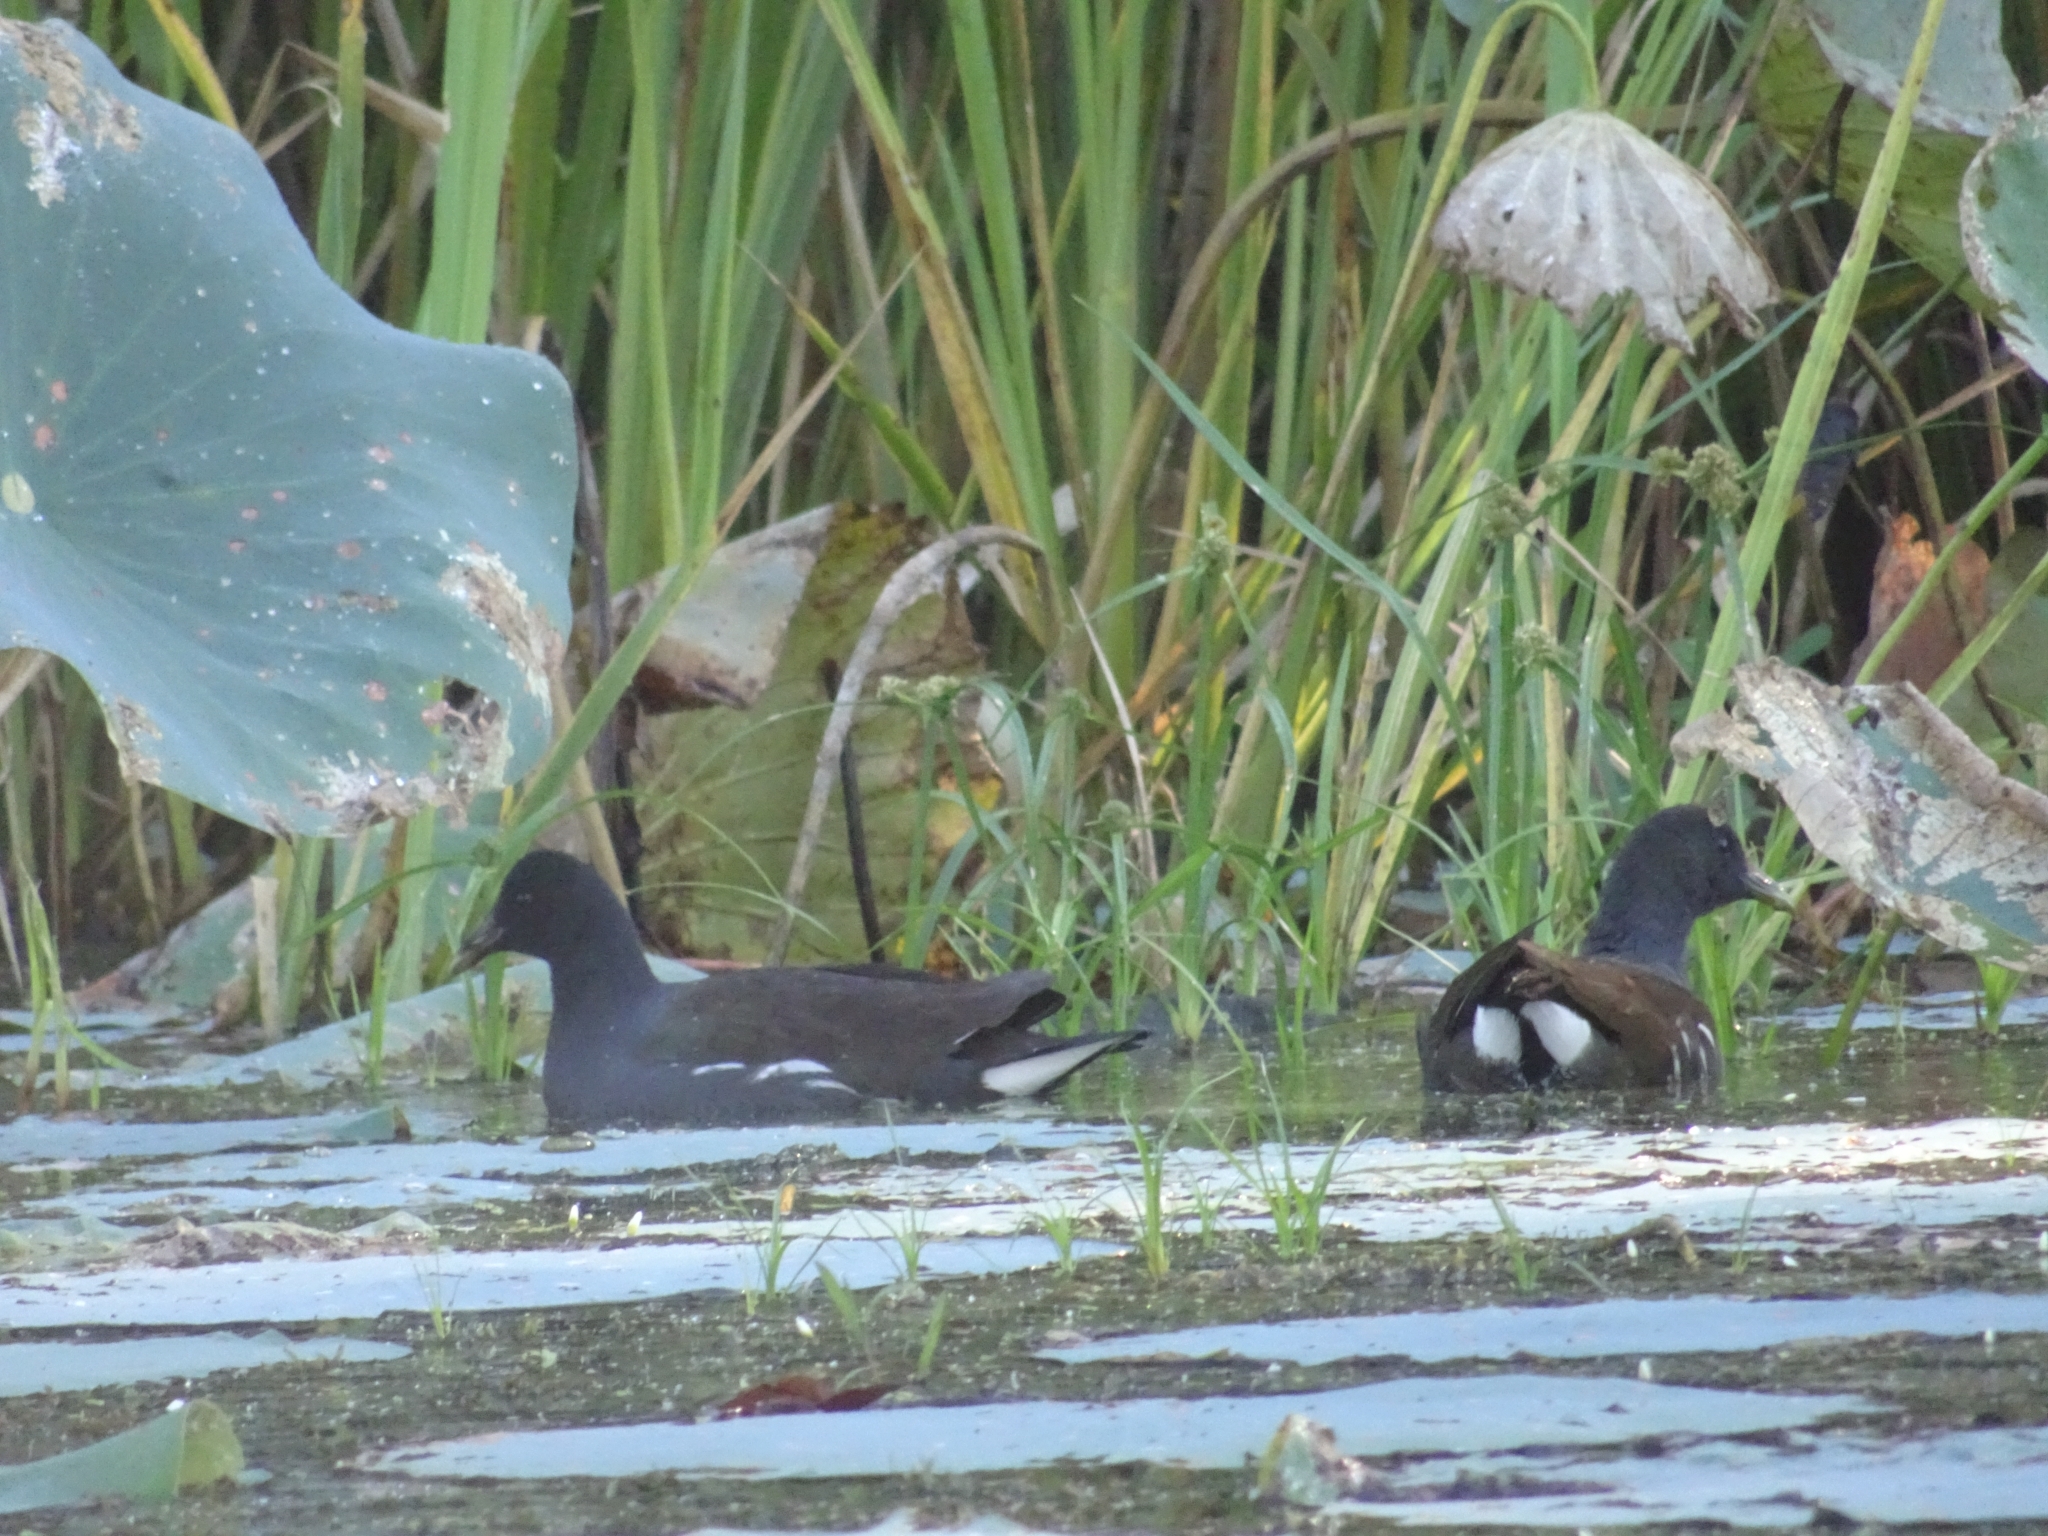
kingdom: Animalia
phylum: Chordata
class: Aves
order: Gruiformes
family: Rallidae
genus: Gallinula
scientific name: Gallinula chloropus
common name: Common moorhen
